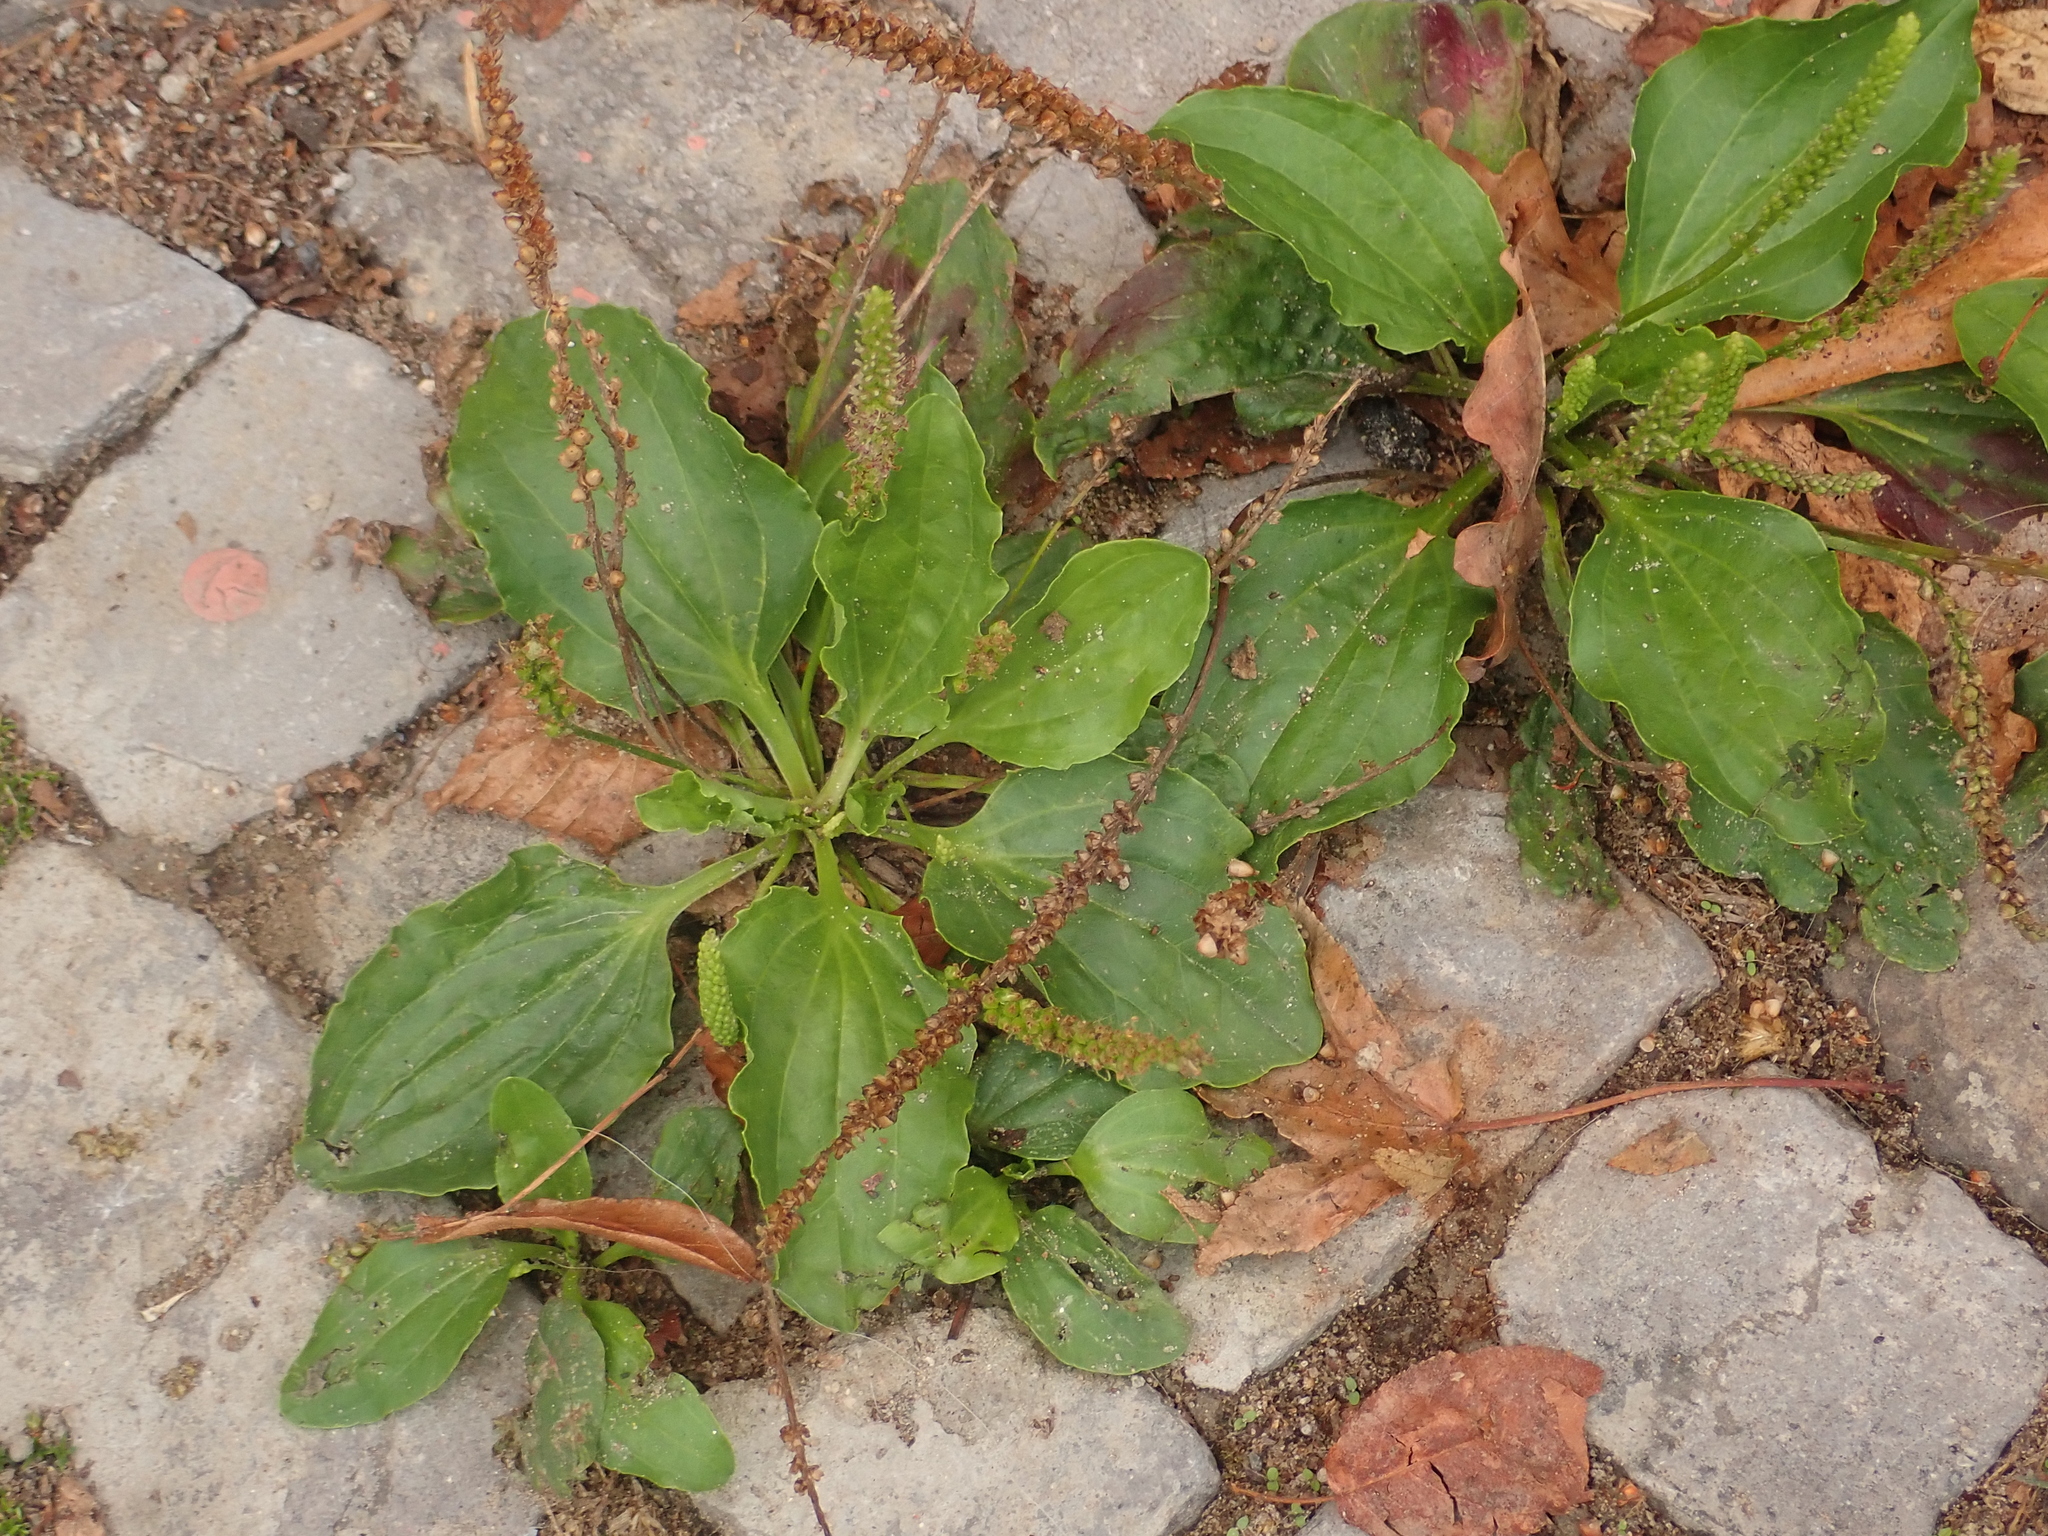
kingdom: Plantae
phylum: Tracheophyta
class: Magnoliopsida
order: Lamiales
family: Plantaginaceae
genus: Plantago
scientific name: Plantago major
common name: Common plantain
